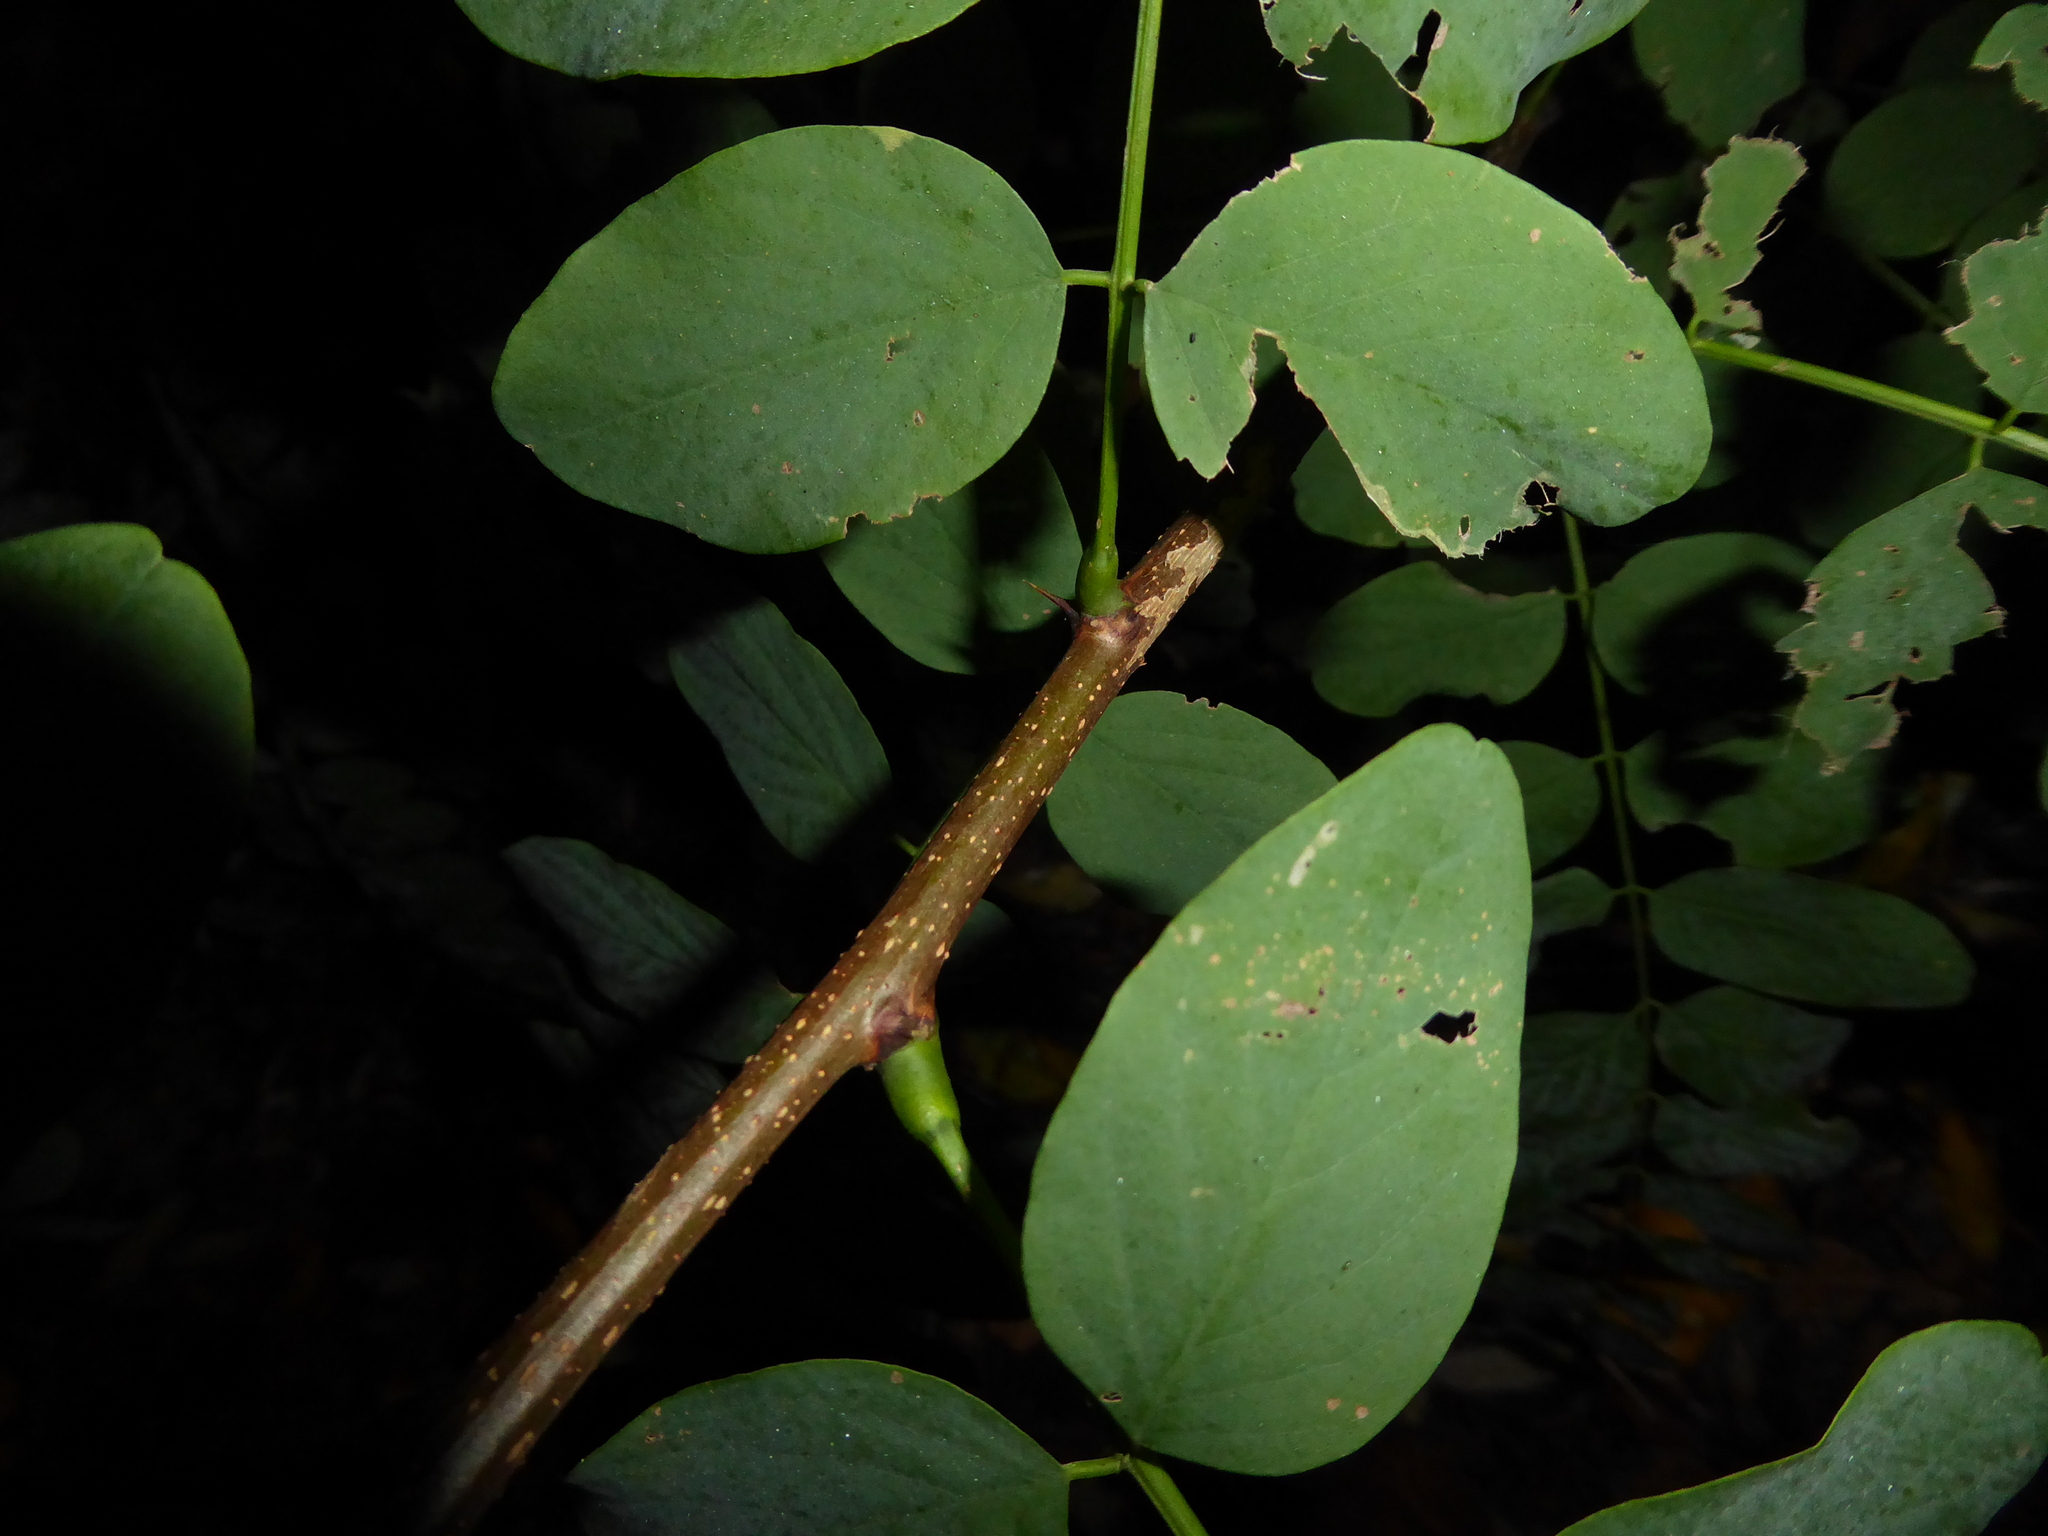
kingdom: Plantae
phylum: Tracheophyta
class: Magnoliopsida
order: Fabales
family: Fabaceae
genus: Robinia
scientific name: Robinia pseudoacacia
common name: Black locust
